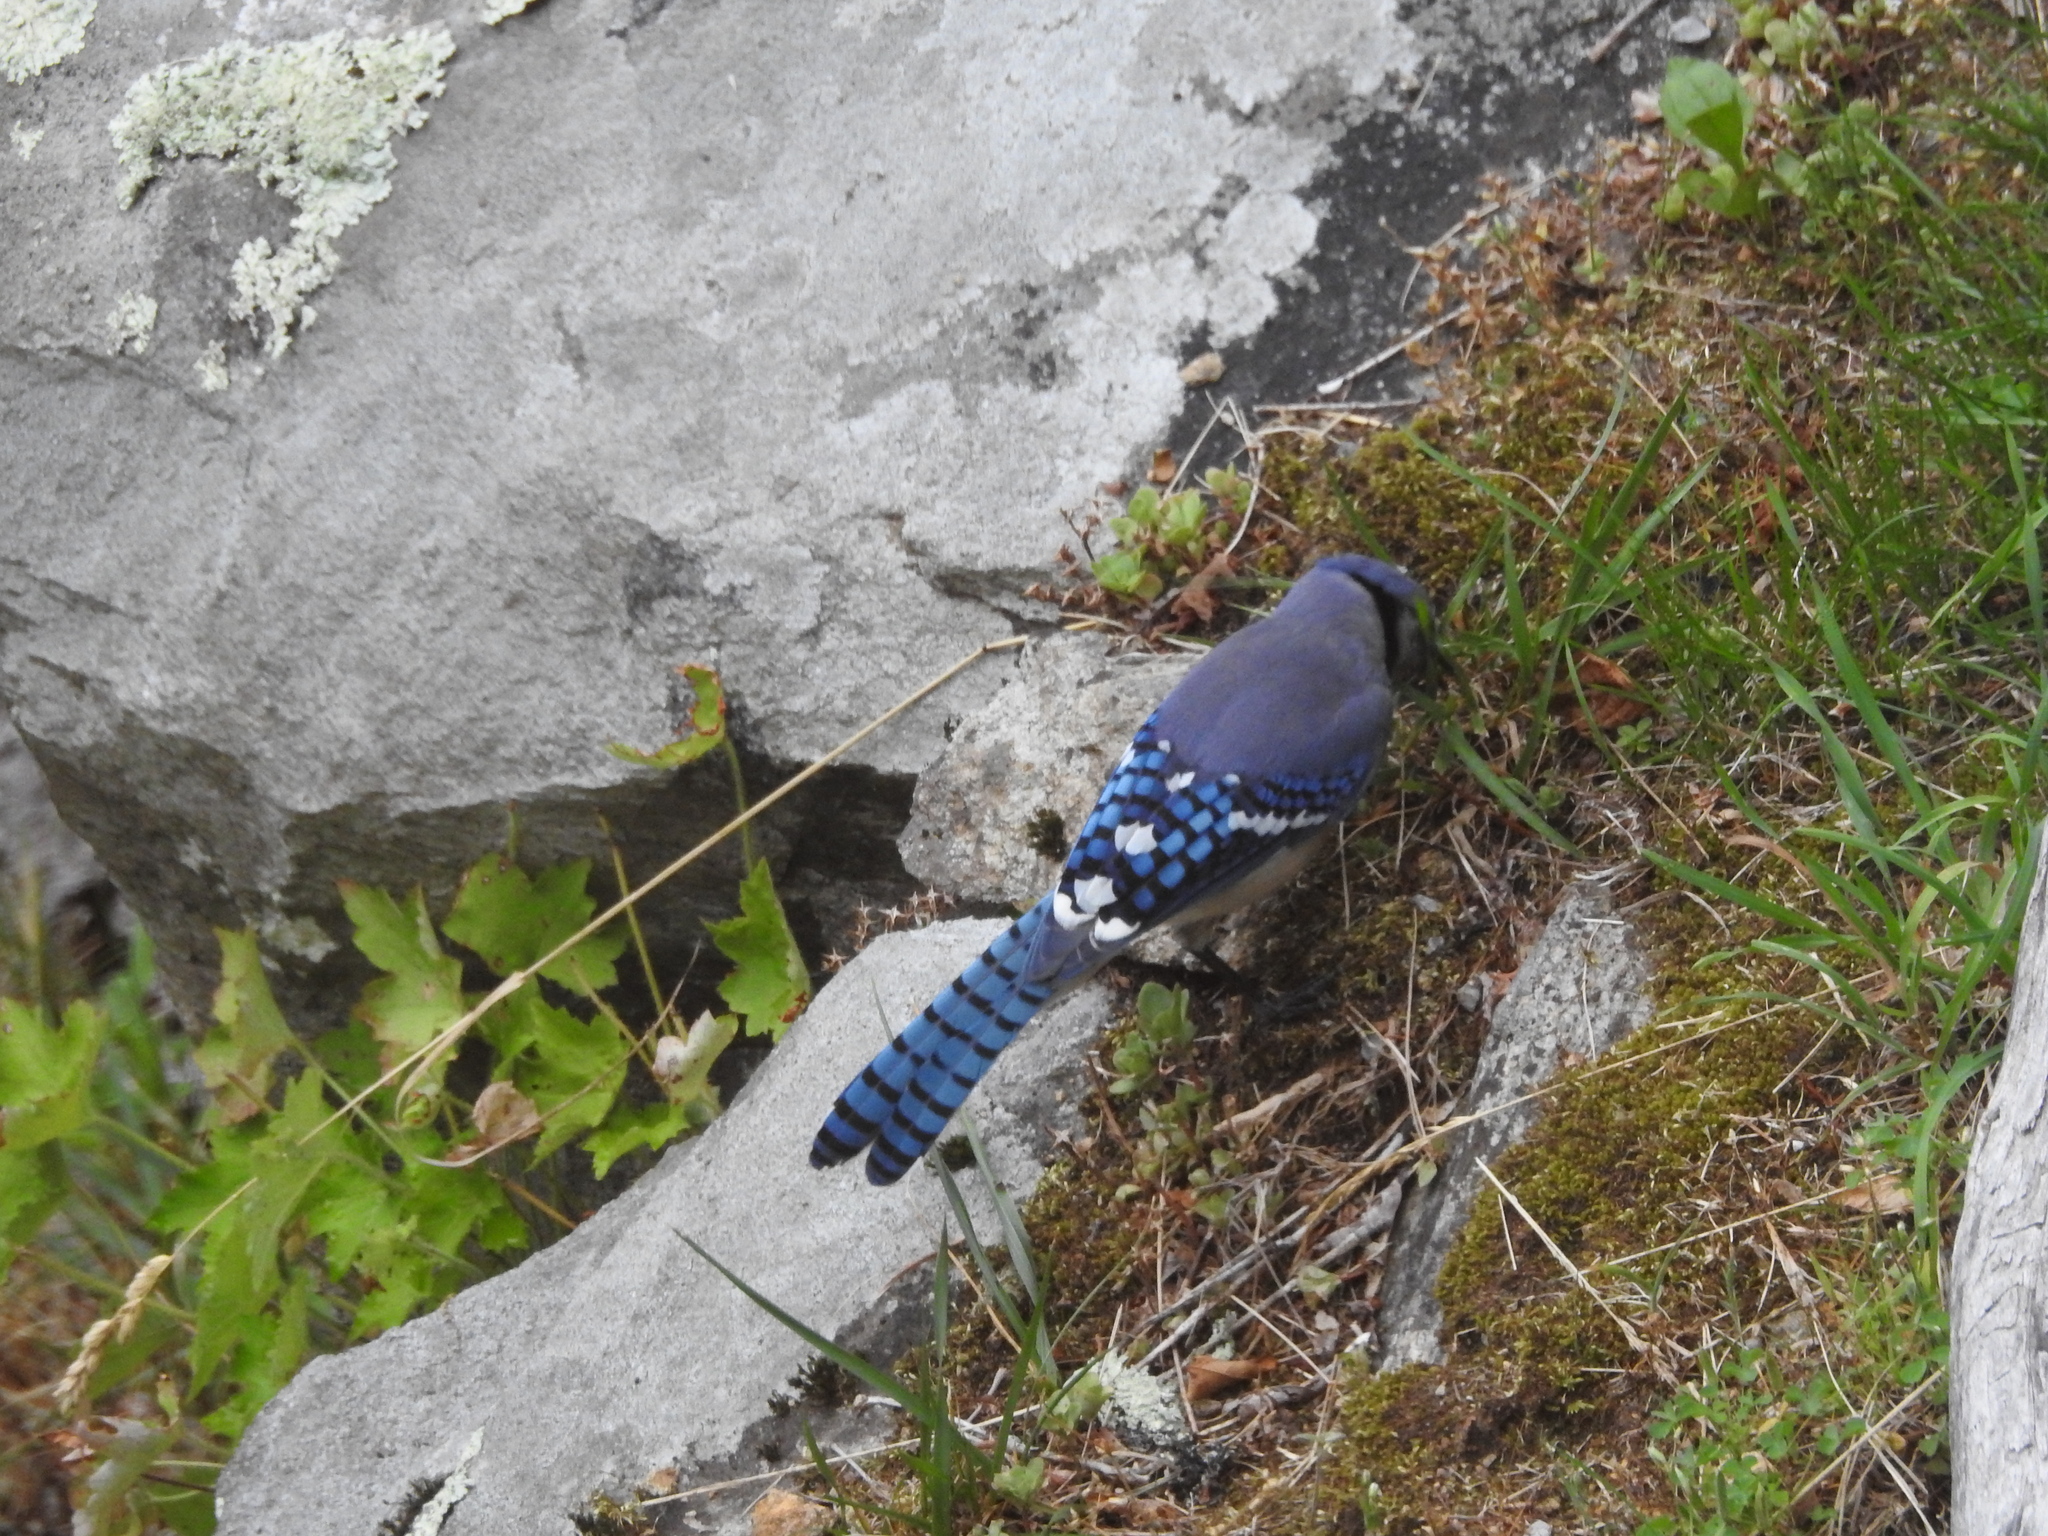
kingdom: Plantae
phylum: Tracheophyta
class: Magnoliopsida
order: Saxifragales
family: Saxifragaceae
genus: Heuchera
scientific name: Heuchera villosa
